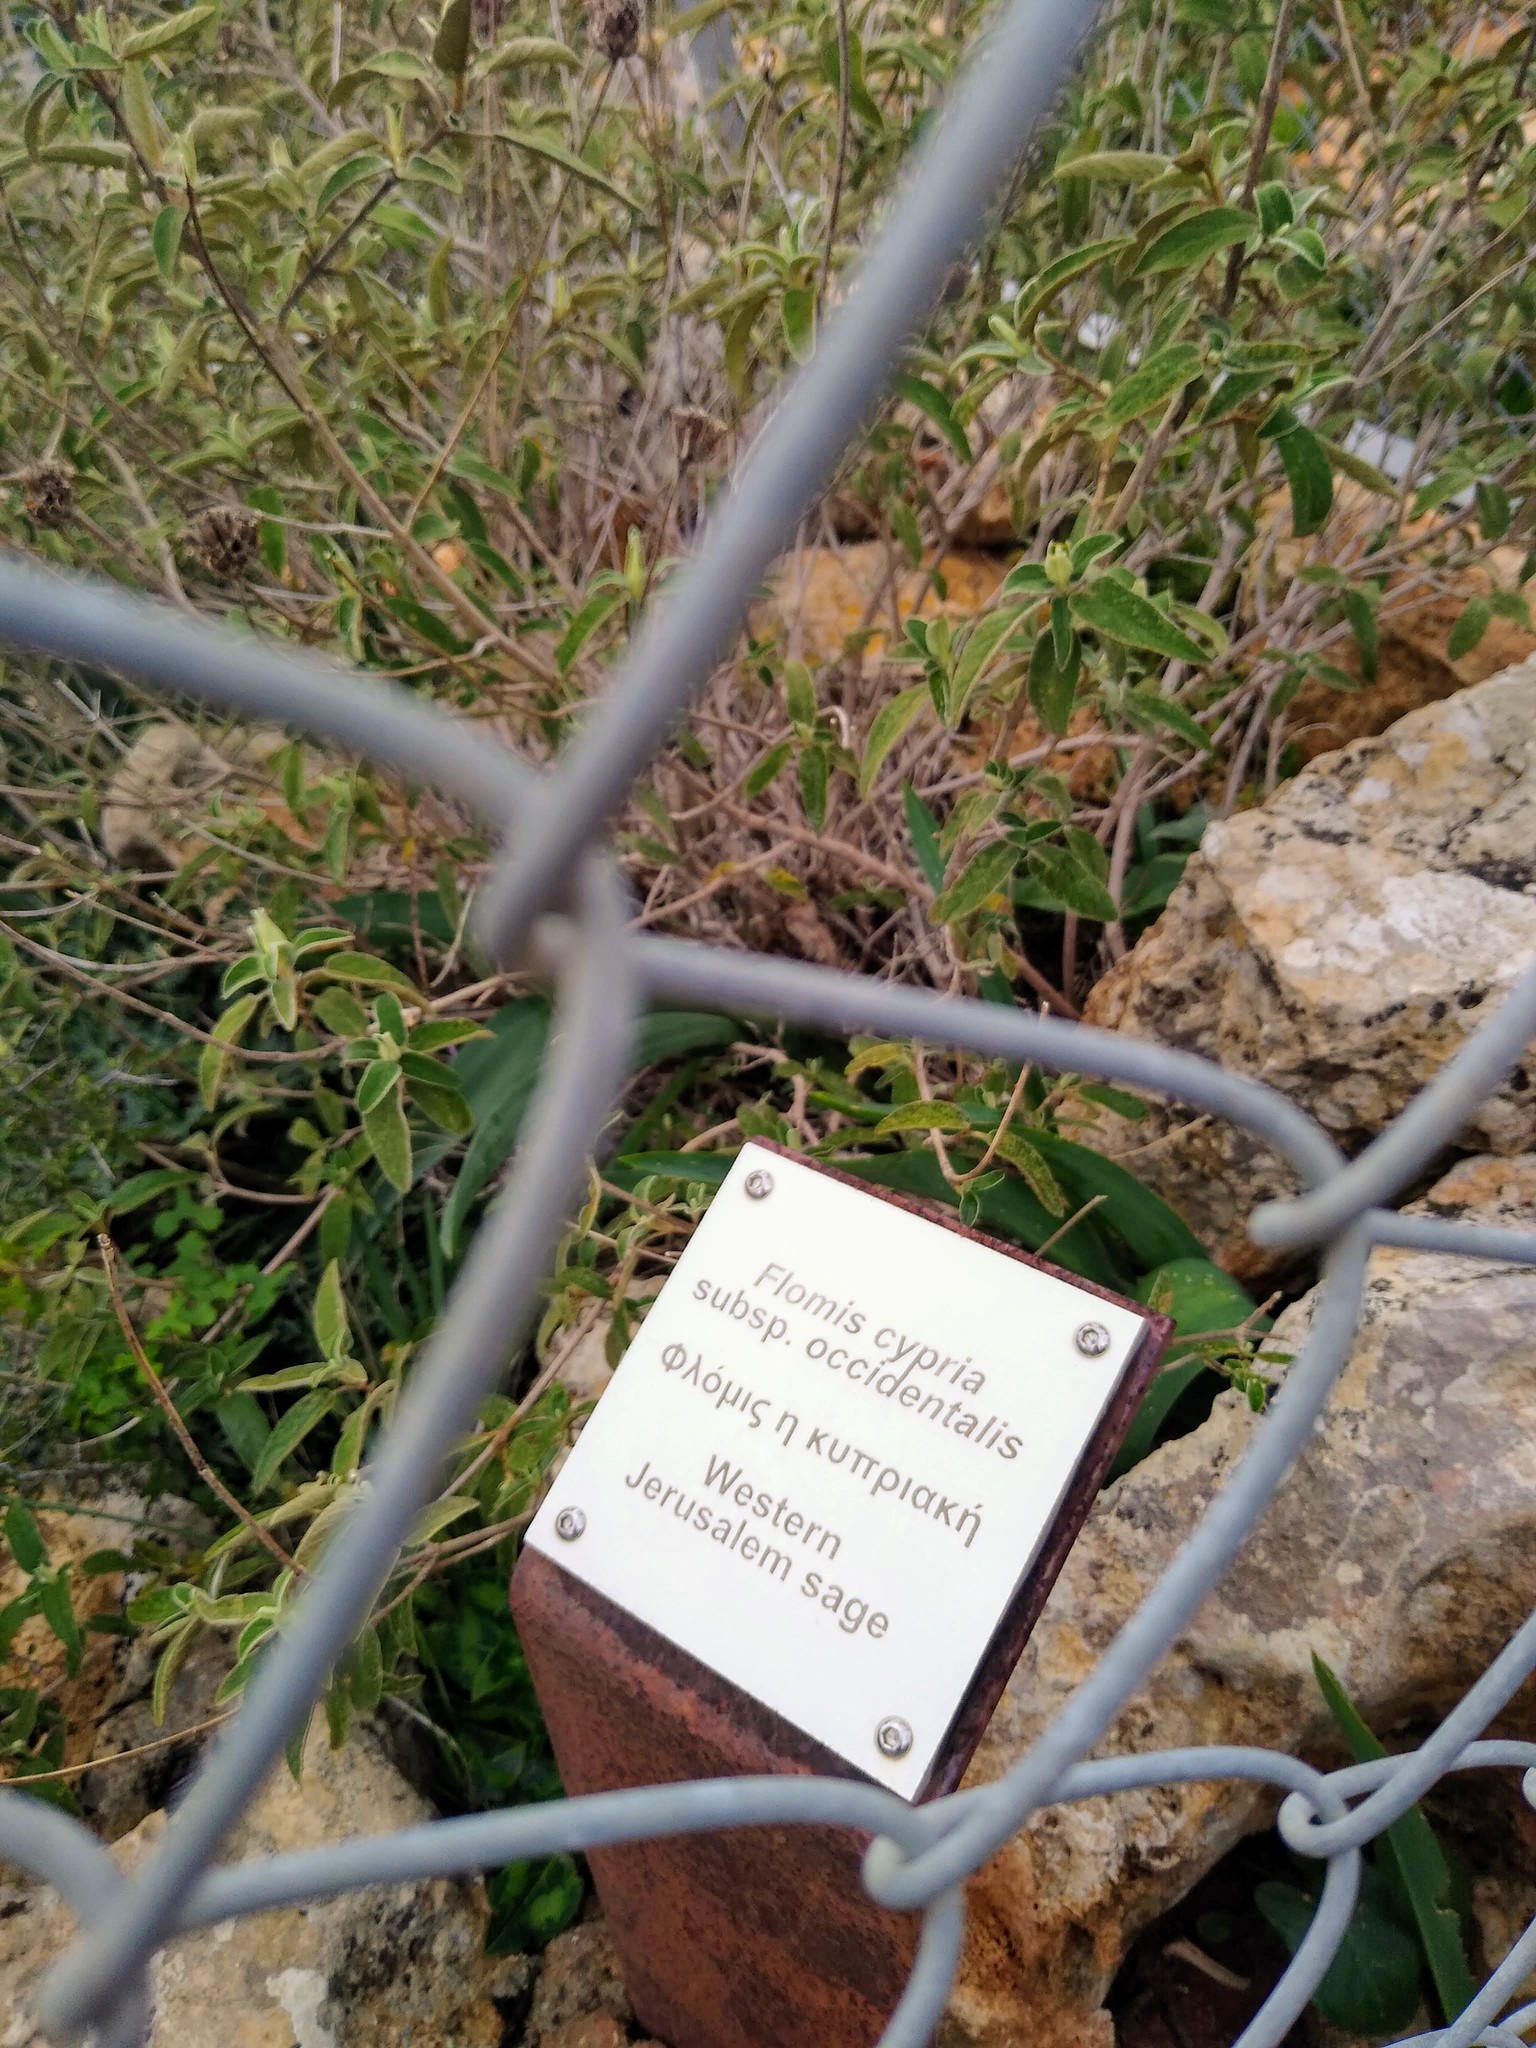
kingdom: Plantae
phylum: Tracheophyta
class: Magnoliopsida
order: Lamiales
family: Lamiaceae
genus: Phlomis
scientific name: Phlomis cypria
